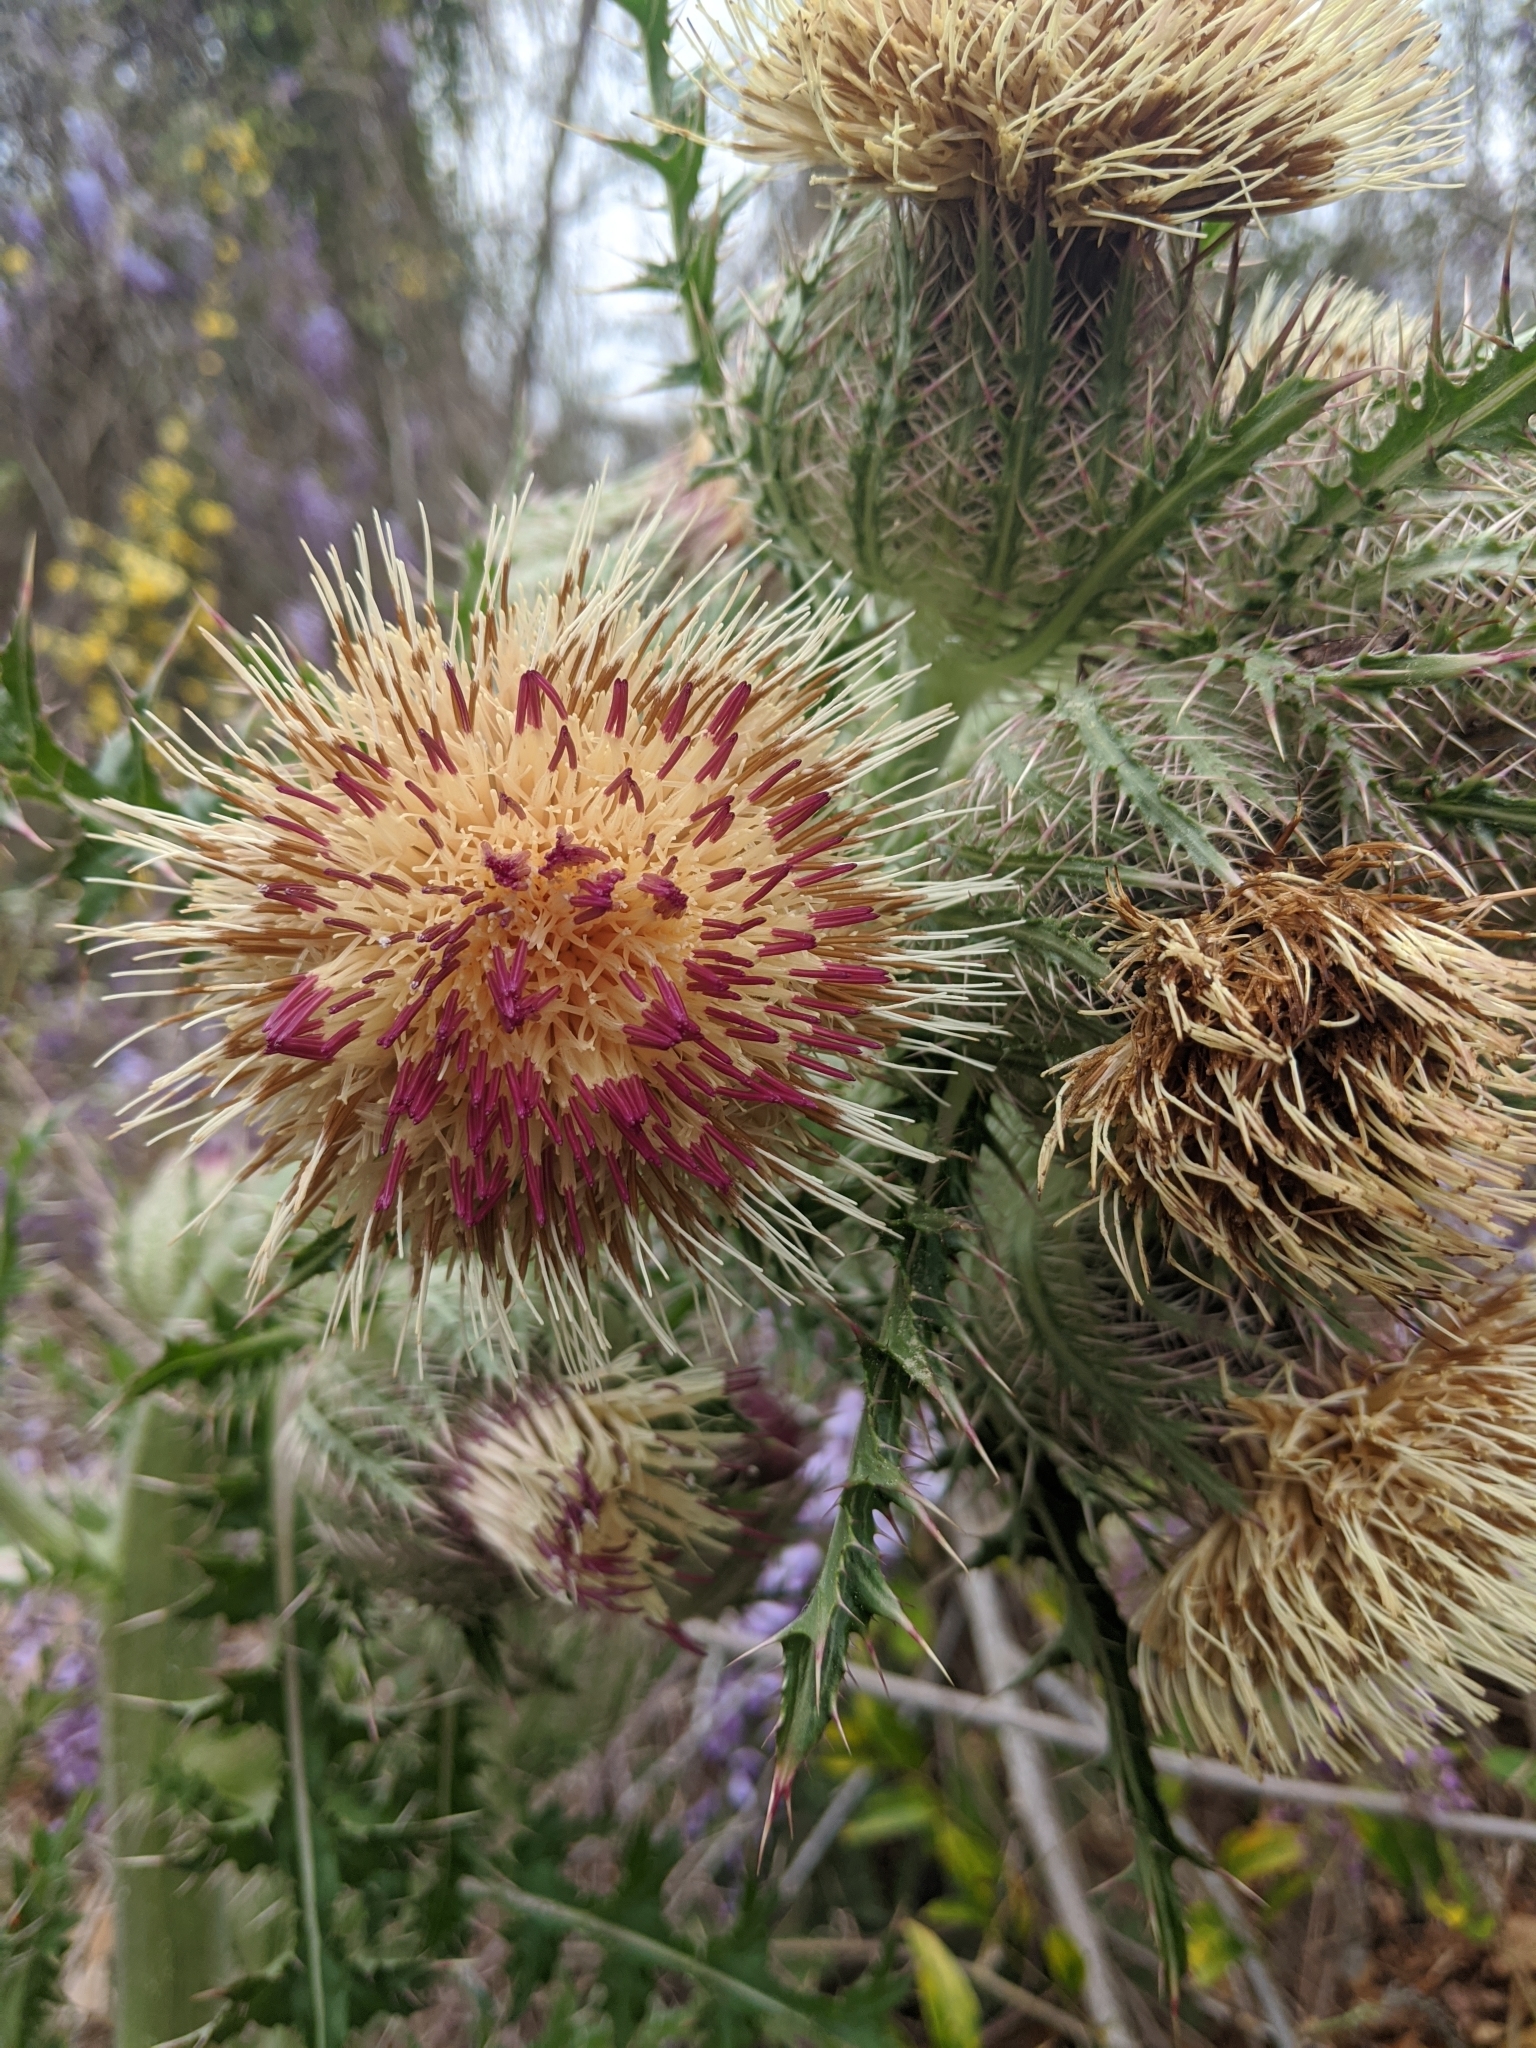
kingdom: Plantae
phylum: Tracheophyta
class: Magnoliopsida
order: Asterales
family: Asteraceae
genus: Cirsium
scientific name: Cirsium horridulum
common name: Bristly thistle
